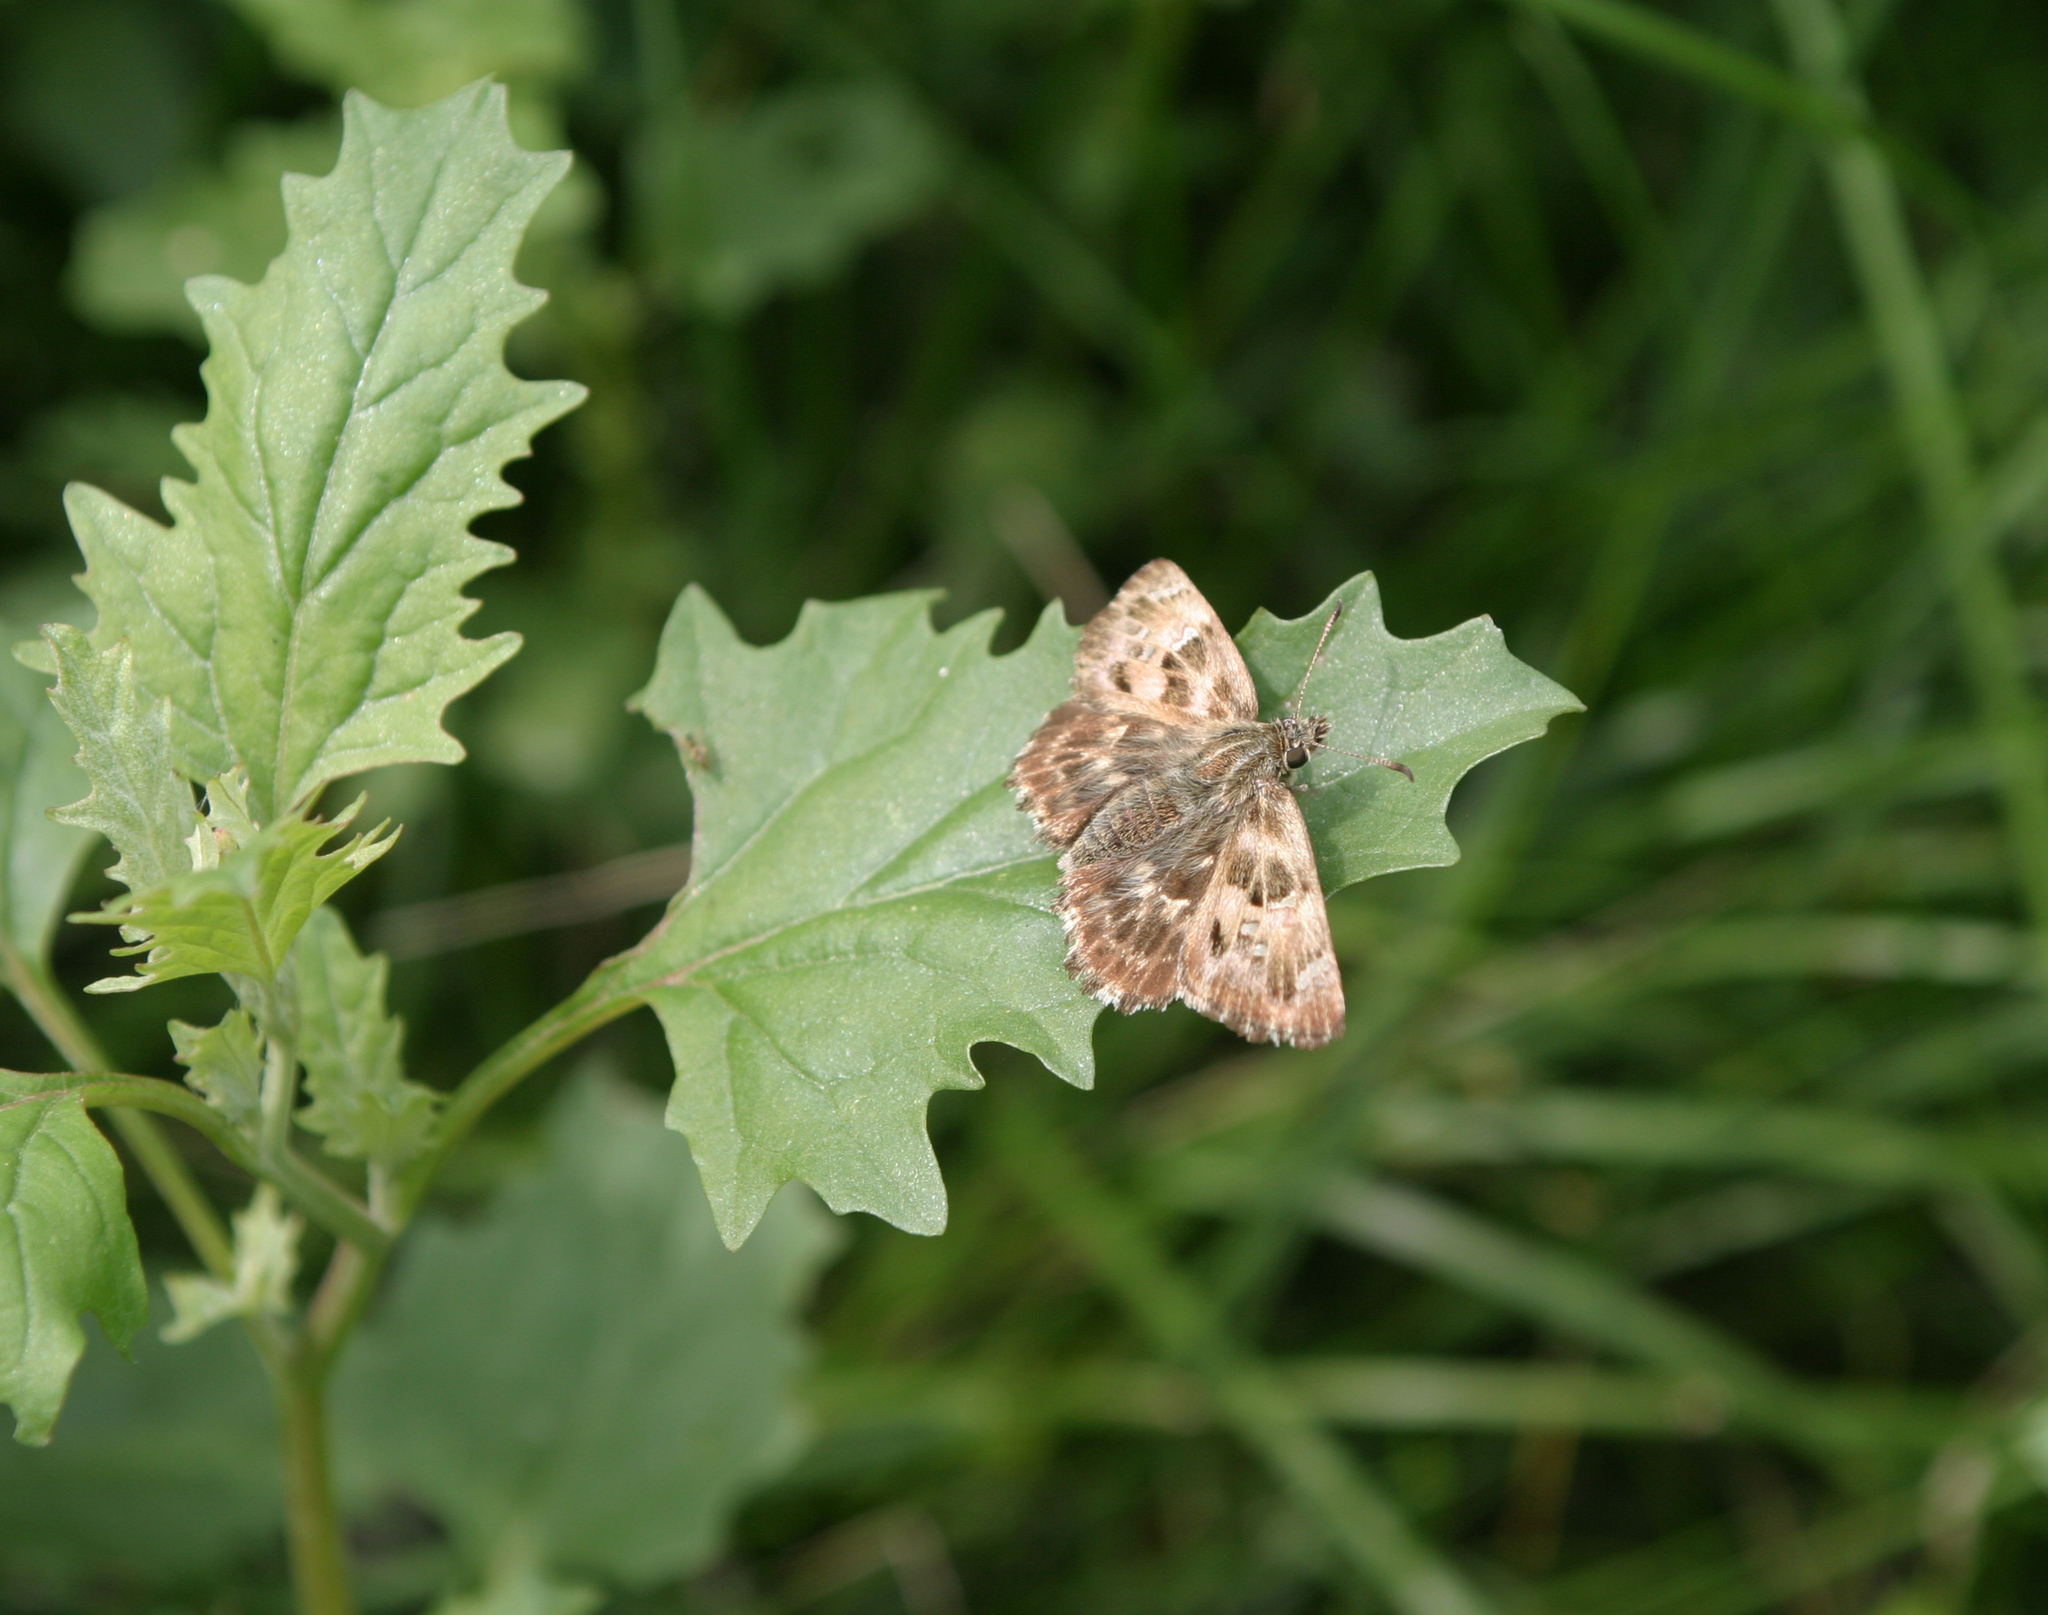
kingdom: Plantae
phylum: Tracheophyta
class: Magnoliopsida
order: Caryophyllales
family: Amaranthaceae
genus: Atriplex
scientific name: Atriplex tatarica
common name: Tatarian orache
